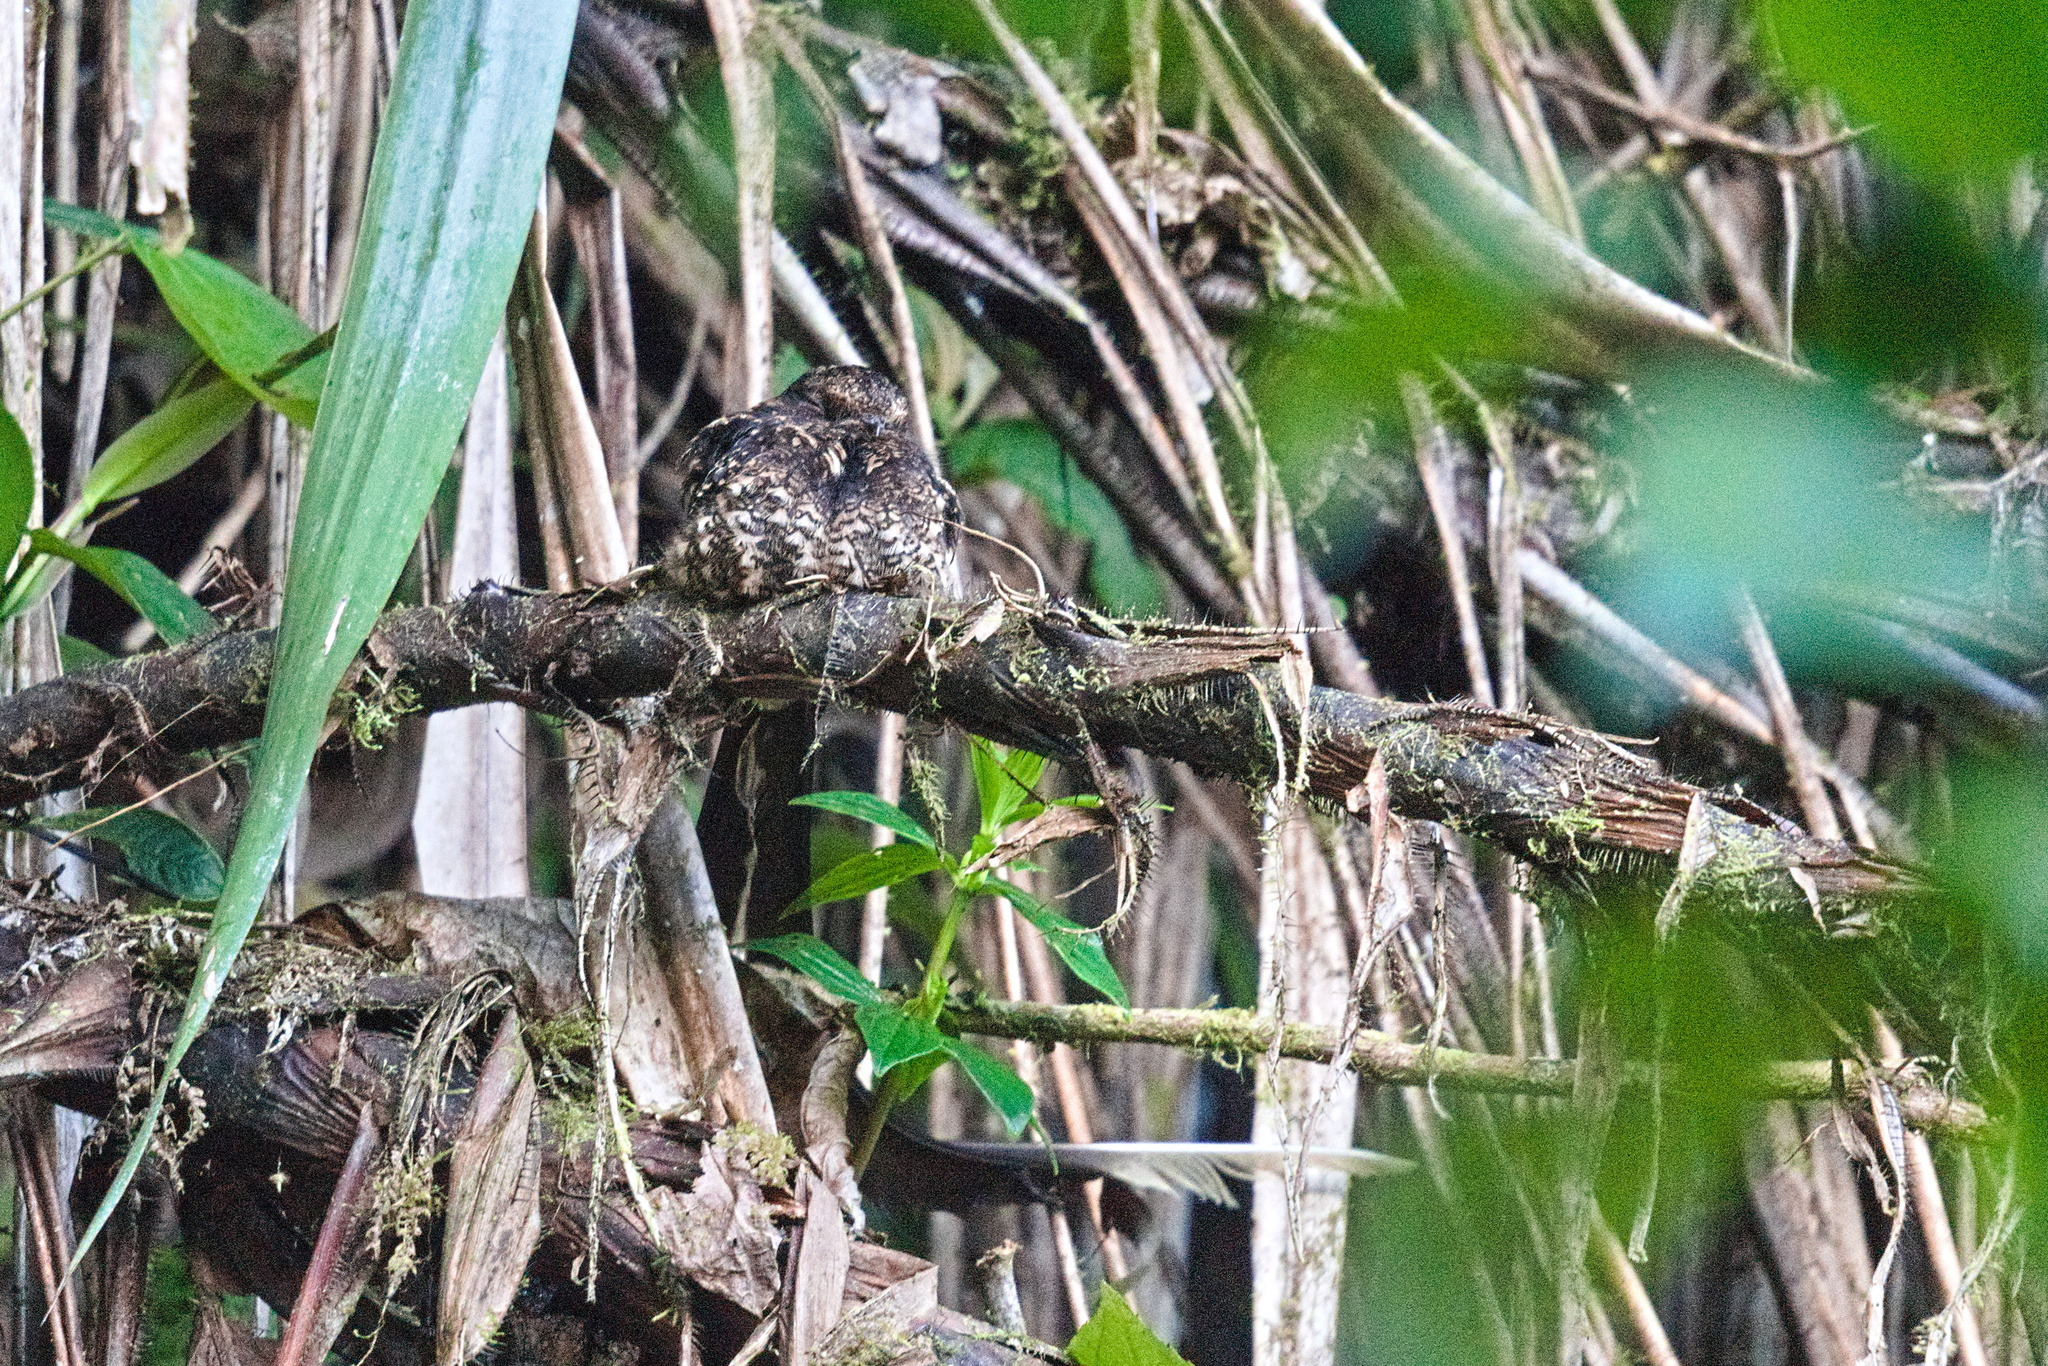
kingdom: Animalia
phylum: Chordata
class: Aves
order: Caprimulgiformes
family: Caprimulgidae
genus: Uropsalis
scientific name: Uropsalis lyra
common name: Lyre-tailed nightjar
